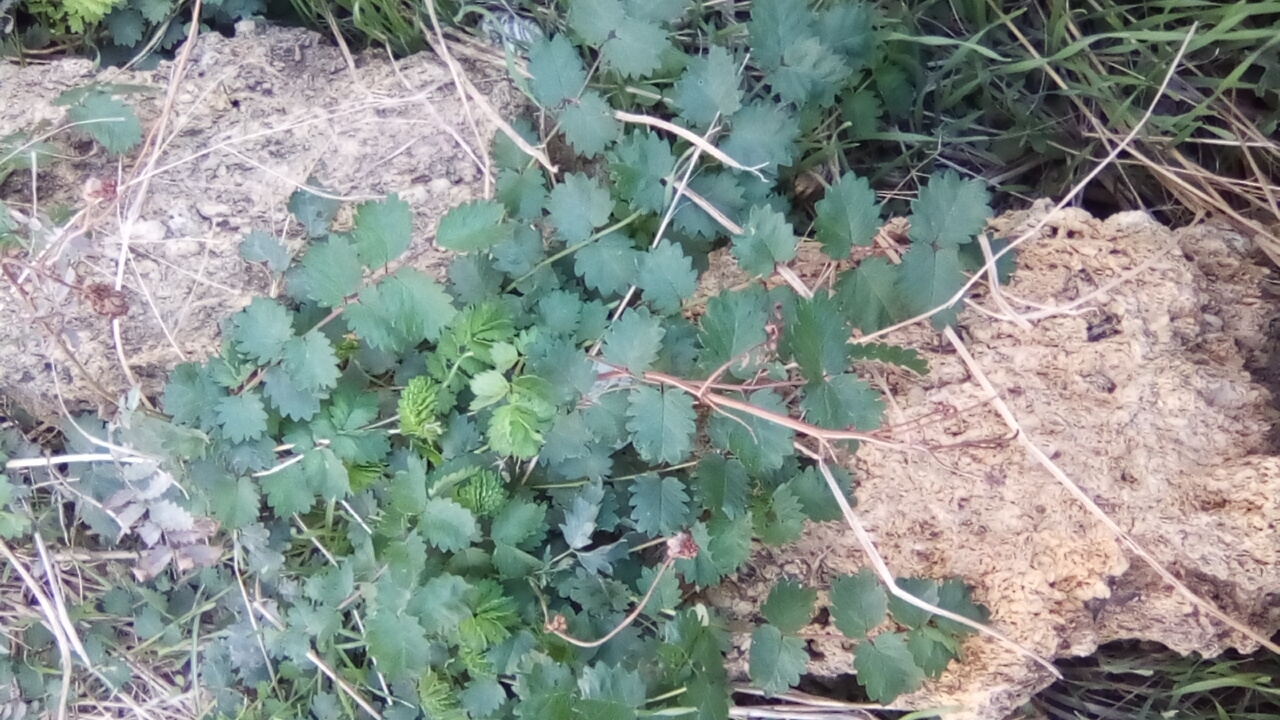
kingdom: Plantae
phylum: Tracheophyta
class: Magnoliopsida
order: Rosales
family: Rosaceae
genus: Poterium
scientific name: Poterium sanguisorba
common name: Salad burnet
